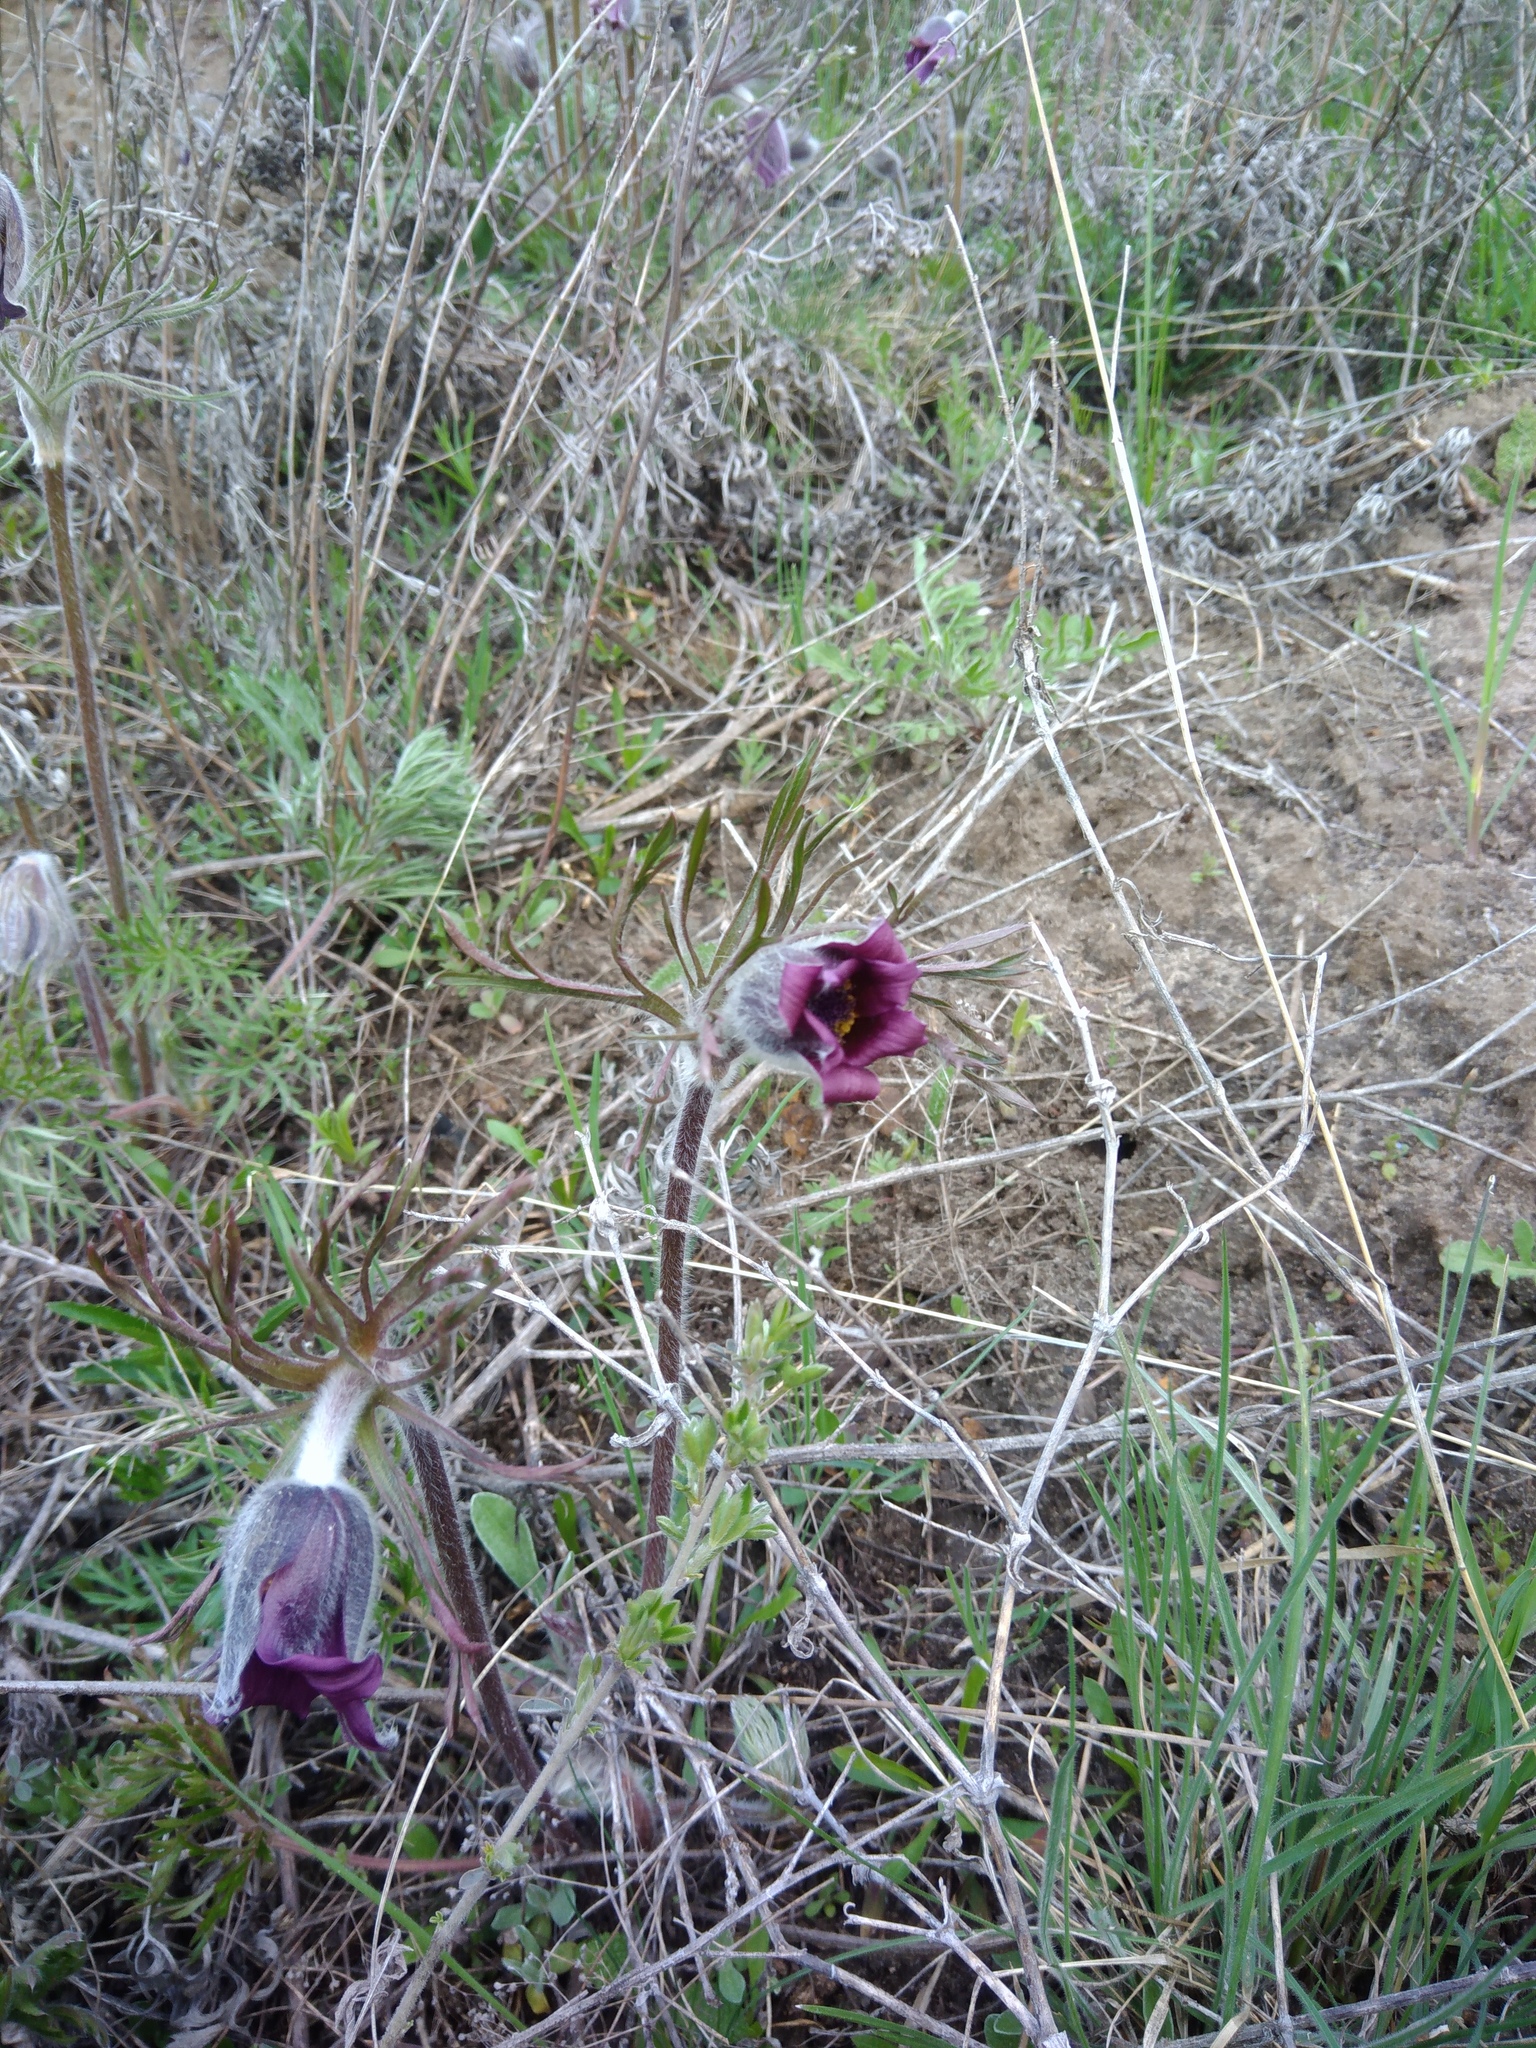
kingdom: Plantae
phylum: Tracheophyta
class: Magnoliopsida
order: Ranunculales
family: Ranunculaceae
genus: Pulsatilla
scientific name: Pulsatilla pratensis
